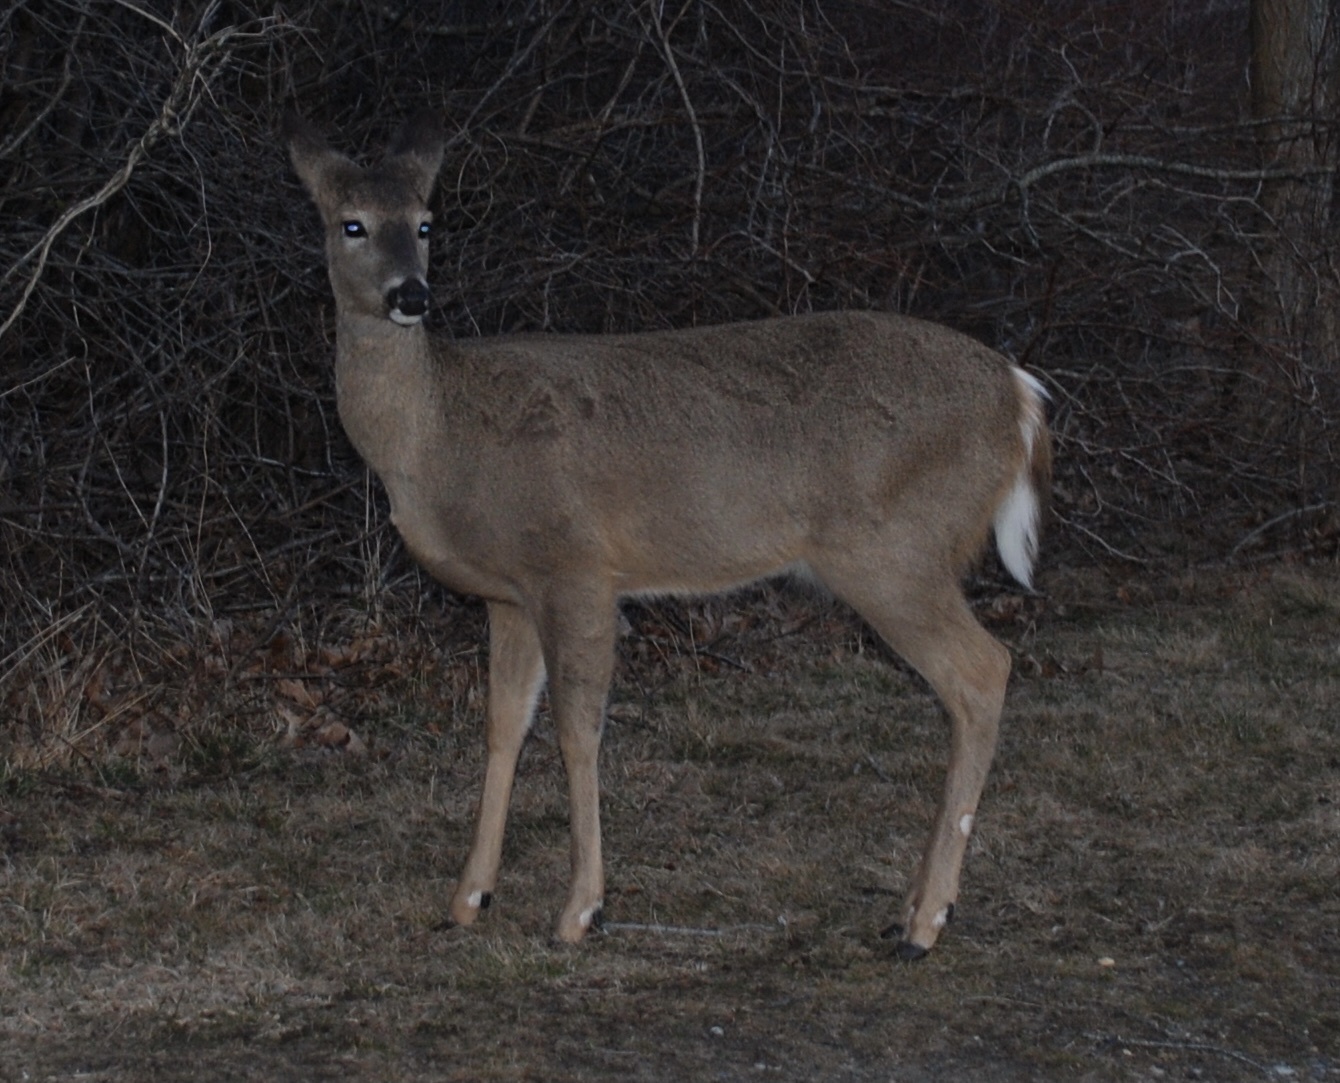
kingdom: Animalia
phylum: Chordata
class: Mammalia
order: Artiodactyla
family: Cervidae
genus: Odocoileus
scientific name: Odocoileus virginianus
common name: White-tailed deer
